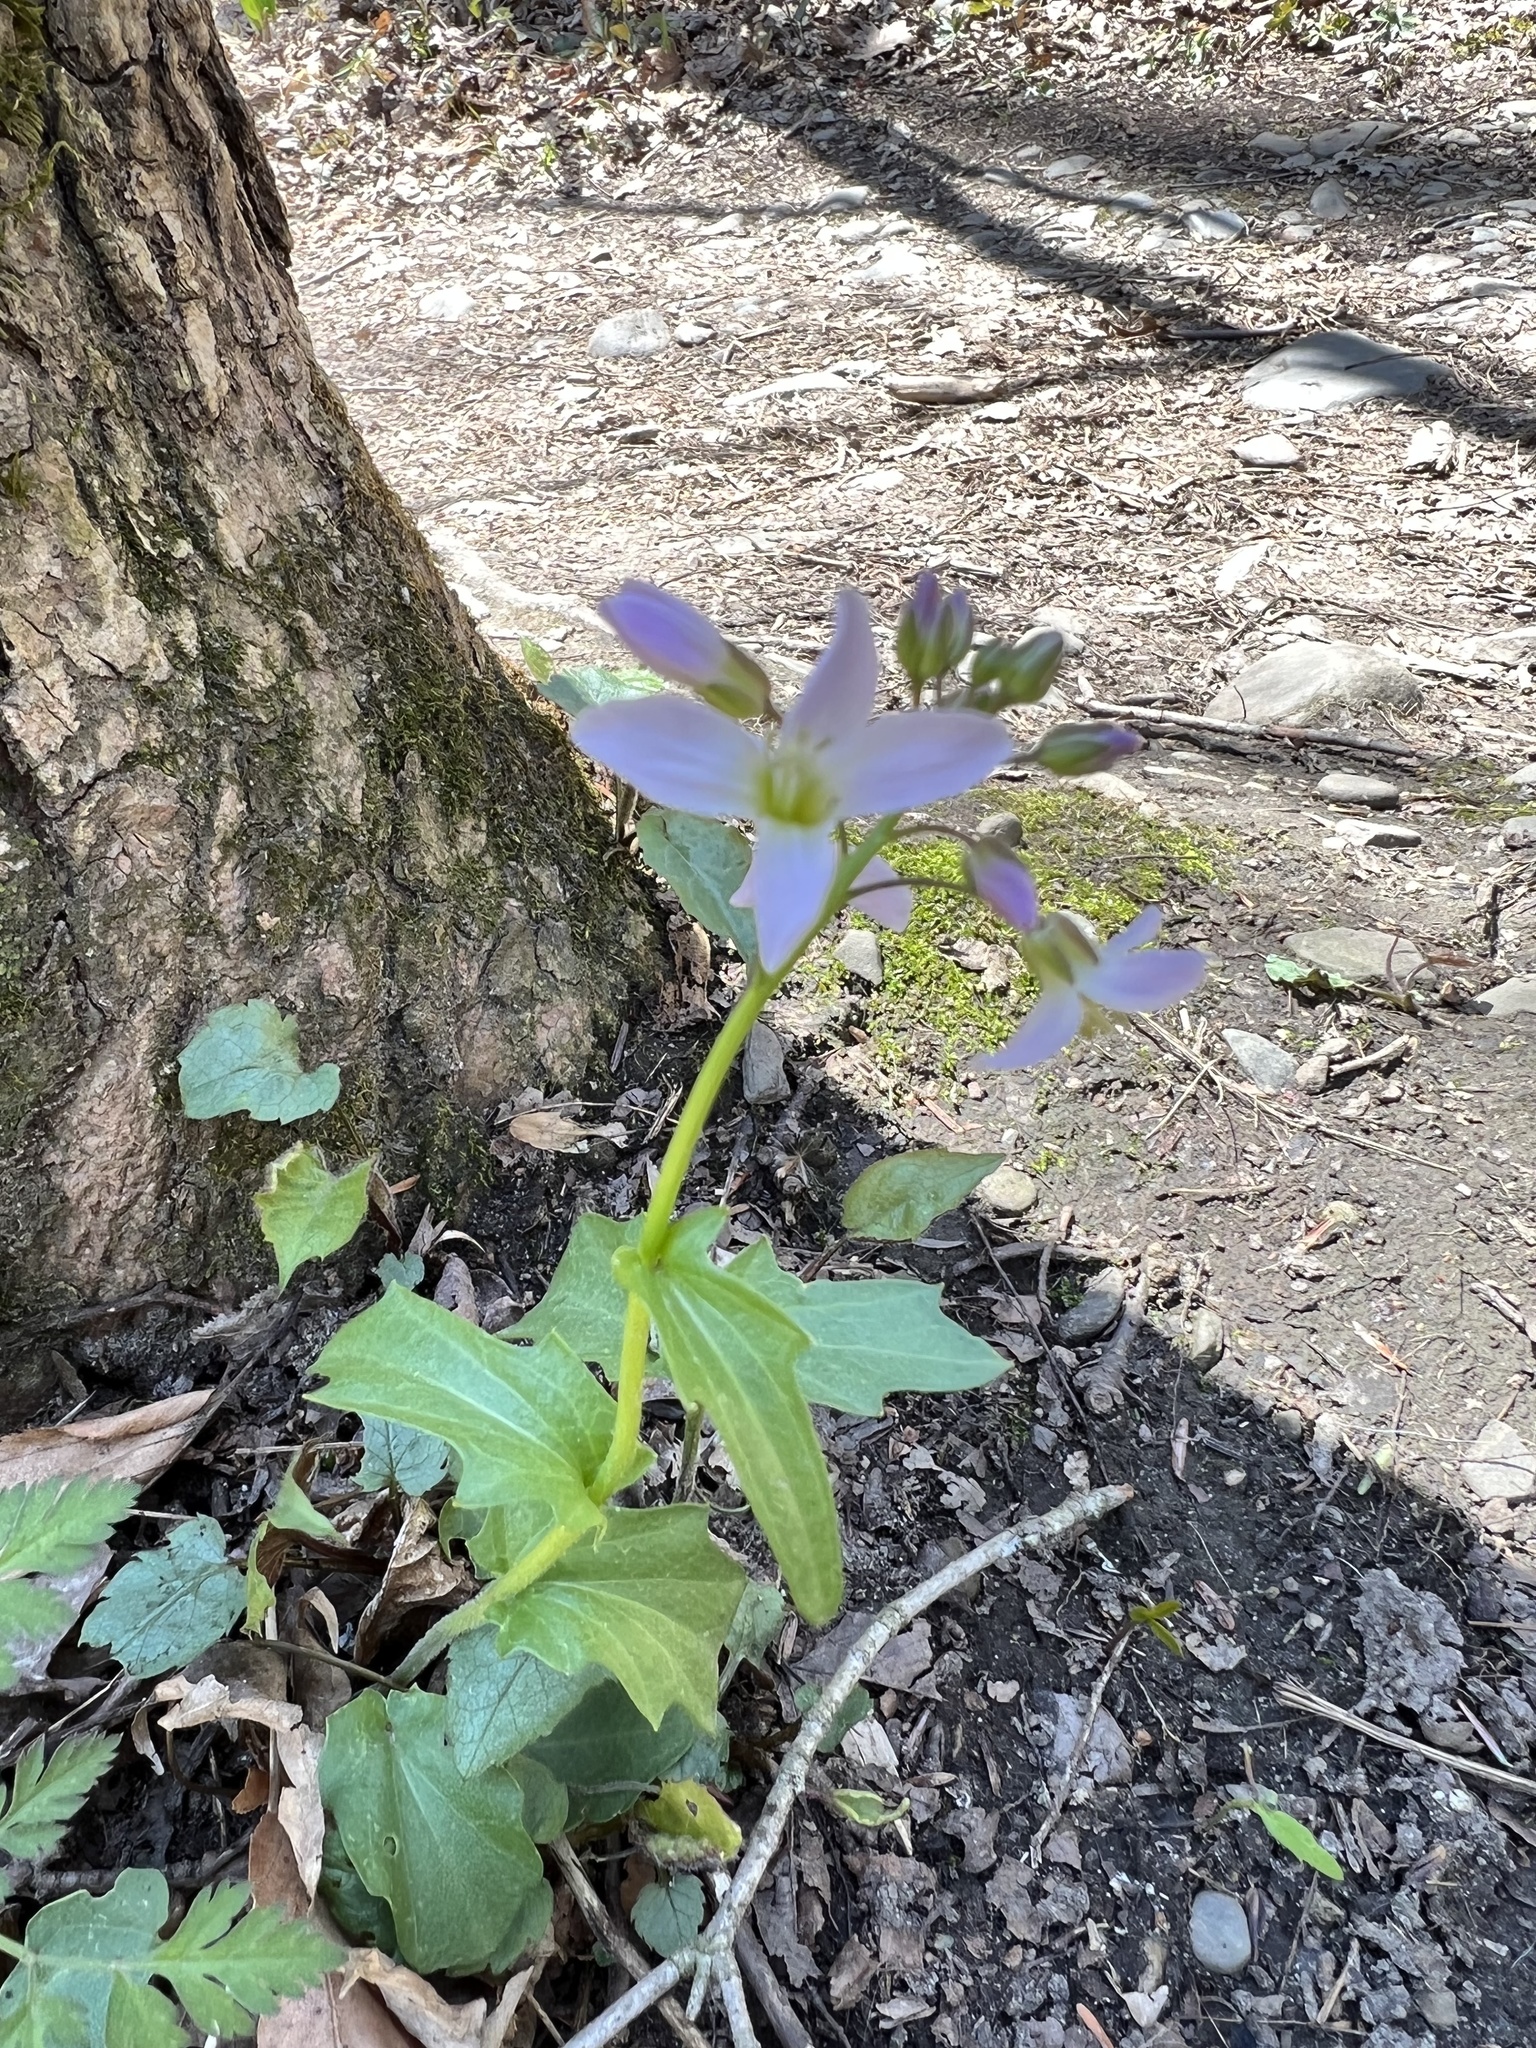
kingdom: Plantae
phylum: Tracheophyta
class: Magnoliopsida
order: Brassicales
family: Brassicaceae
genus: Cardamine
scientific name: Cardamine douglassii
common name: Purple cress
